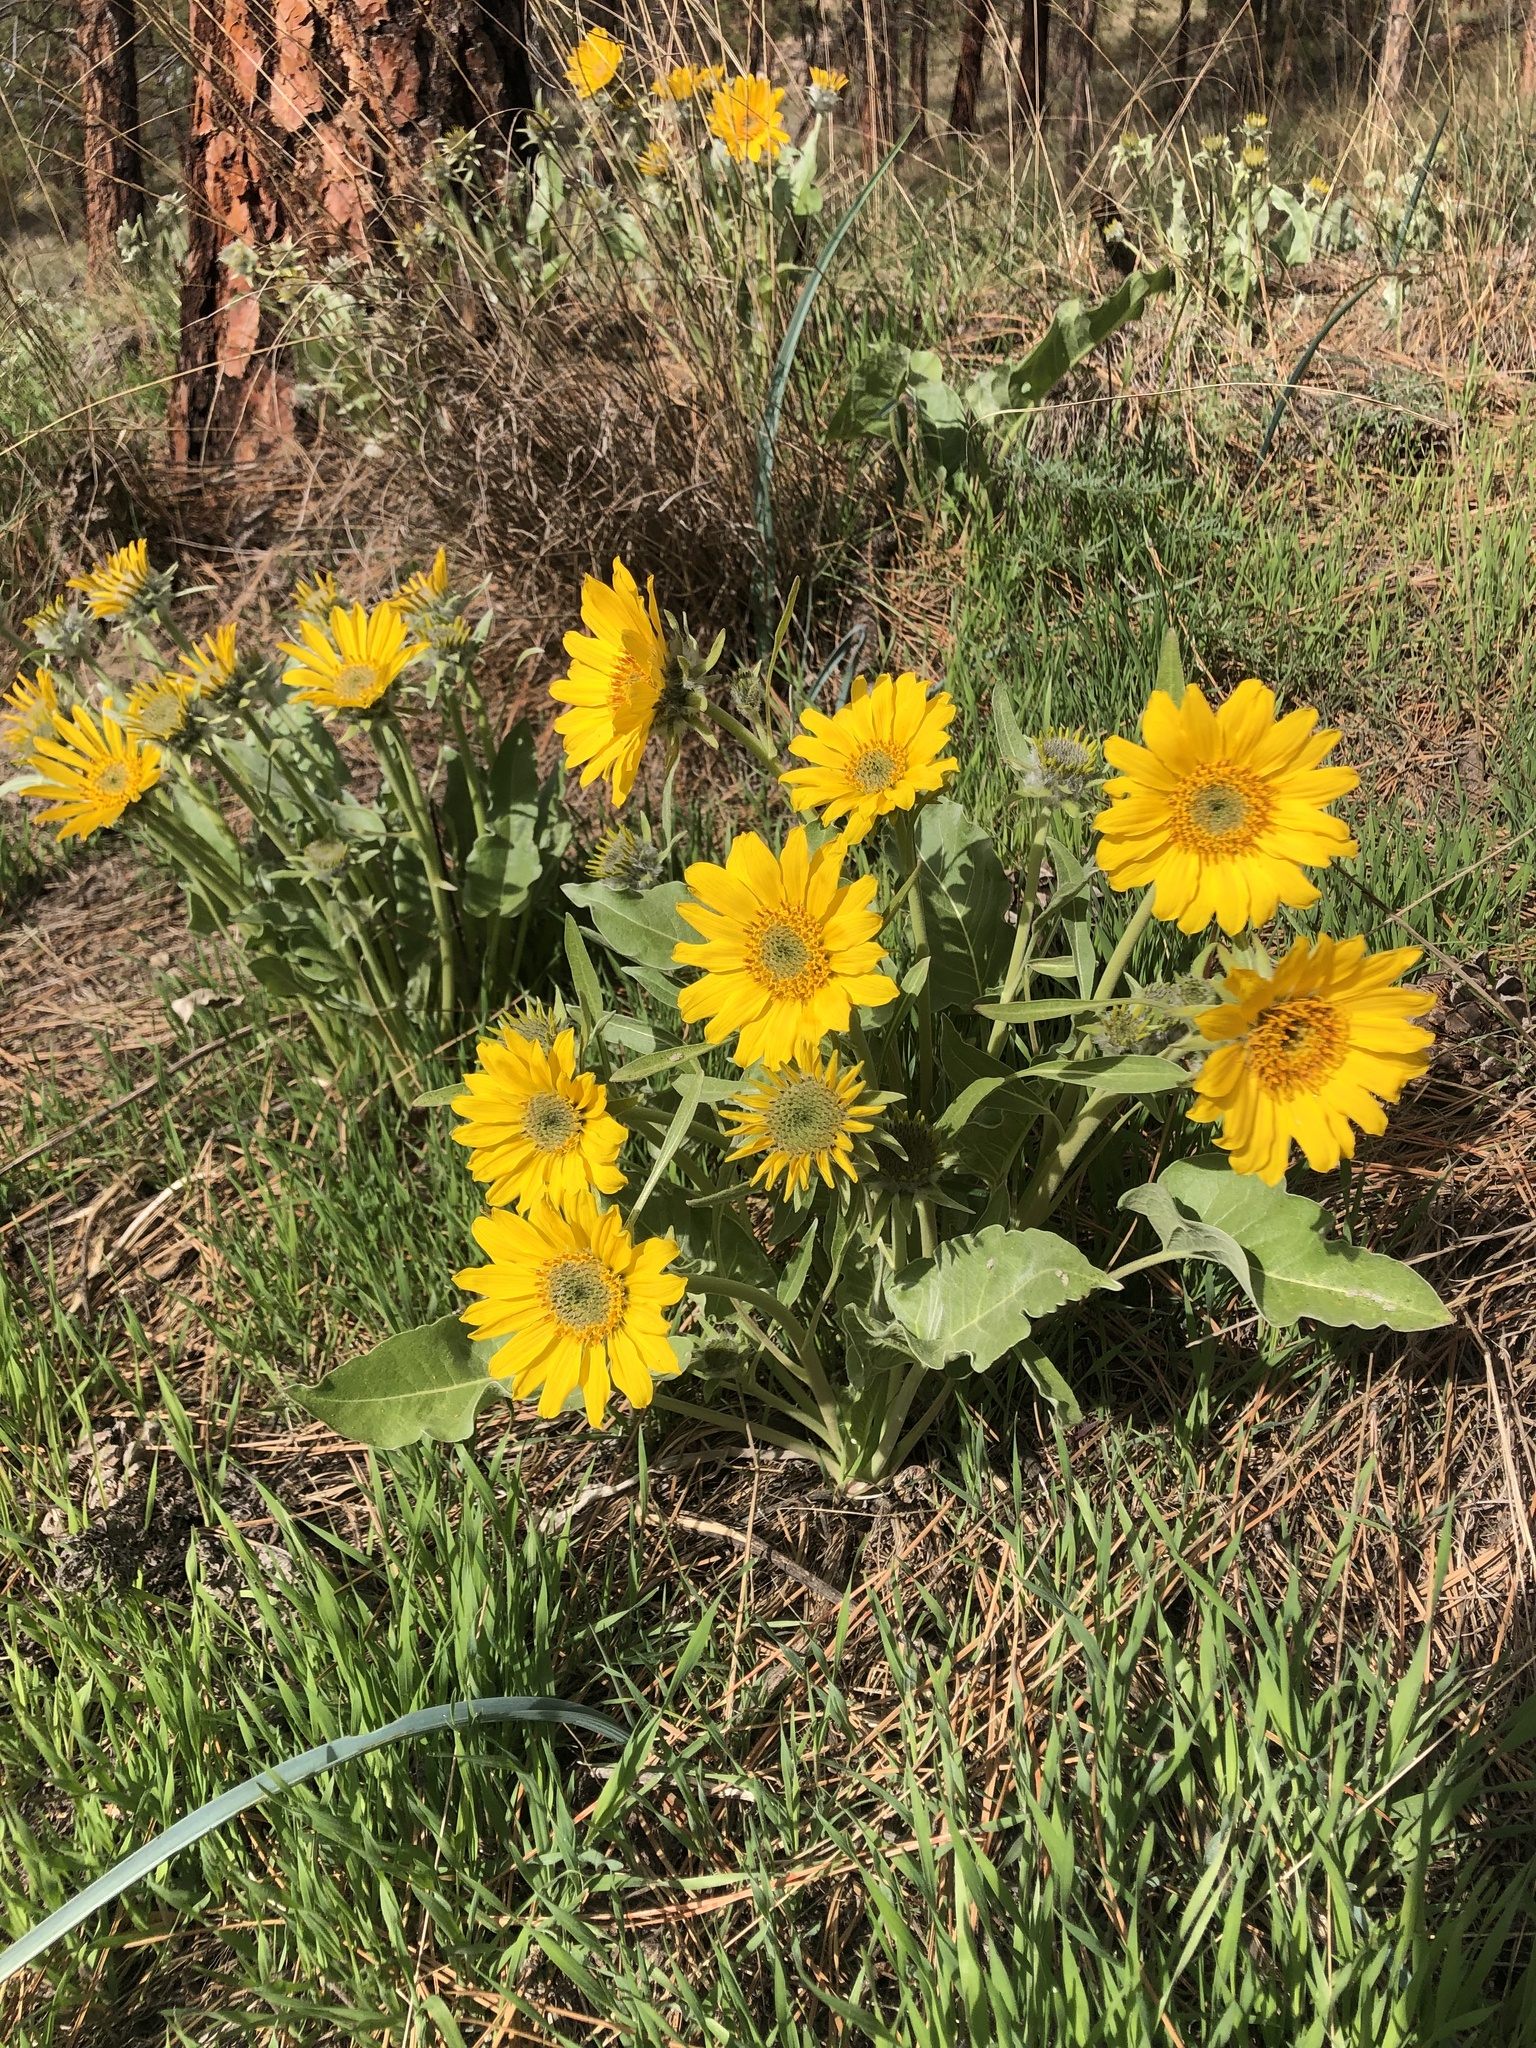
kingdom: Plantae
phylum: Tracheophyta
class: Magnoliopsida
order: Asterales
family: Asteraceae
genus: Wyethia
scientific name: Wyethia sagittata
